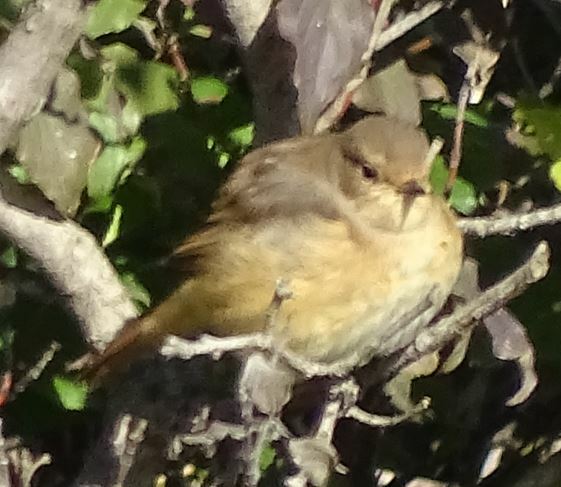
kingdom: Animalia
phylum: Chordata
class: Aves
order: Passeriformes
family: Muscicapidae
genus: Phoenicurus
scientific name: Phoenicurus phoenicurus
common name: Common redstart
